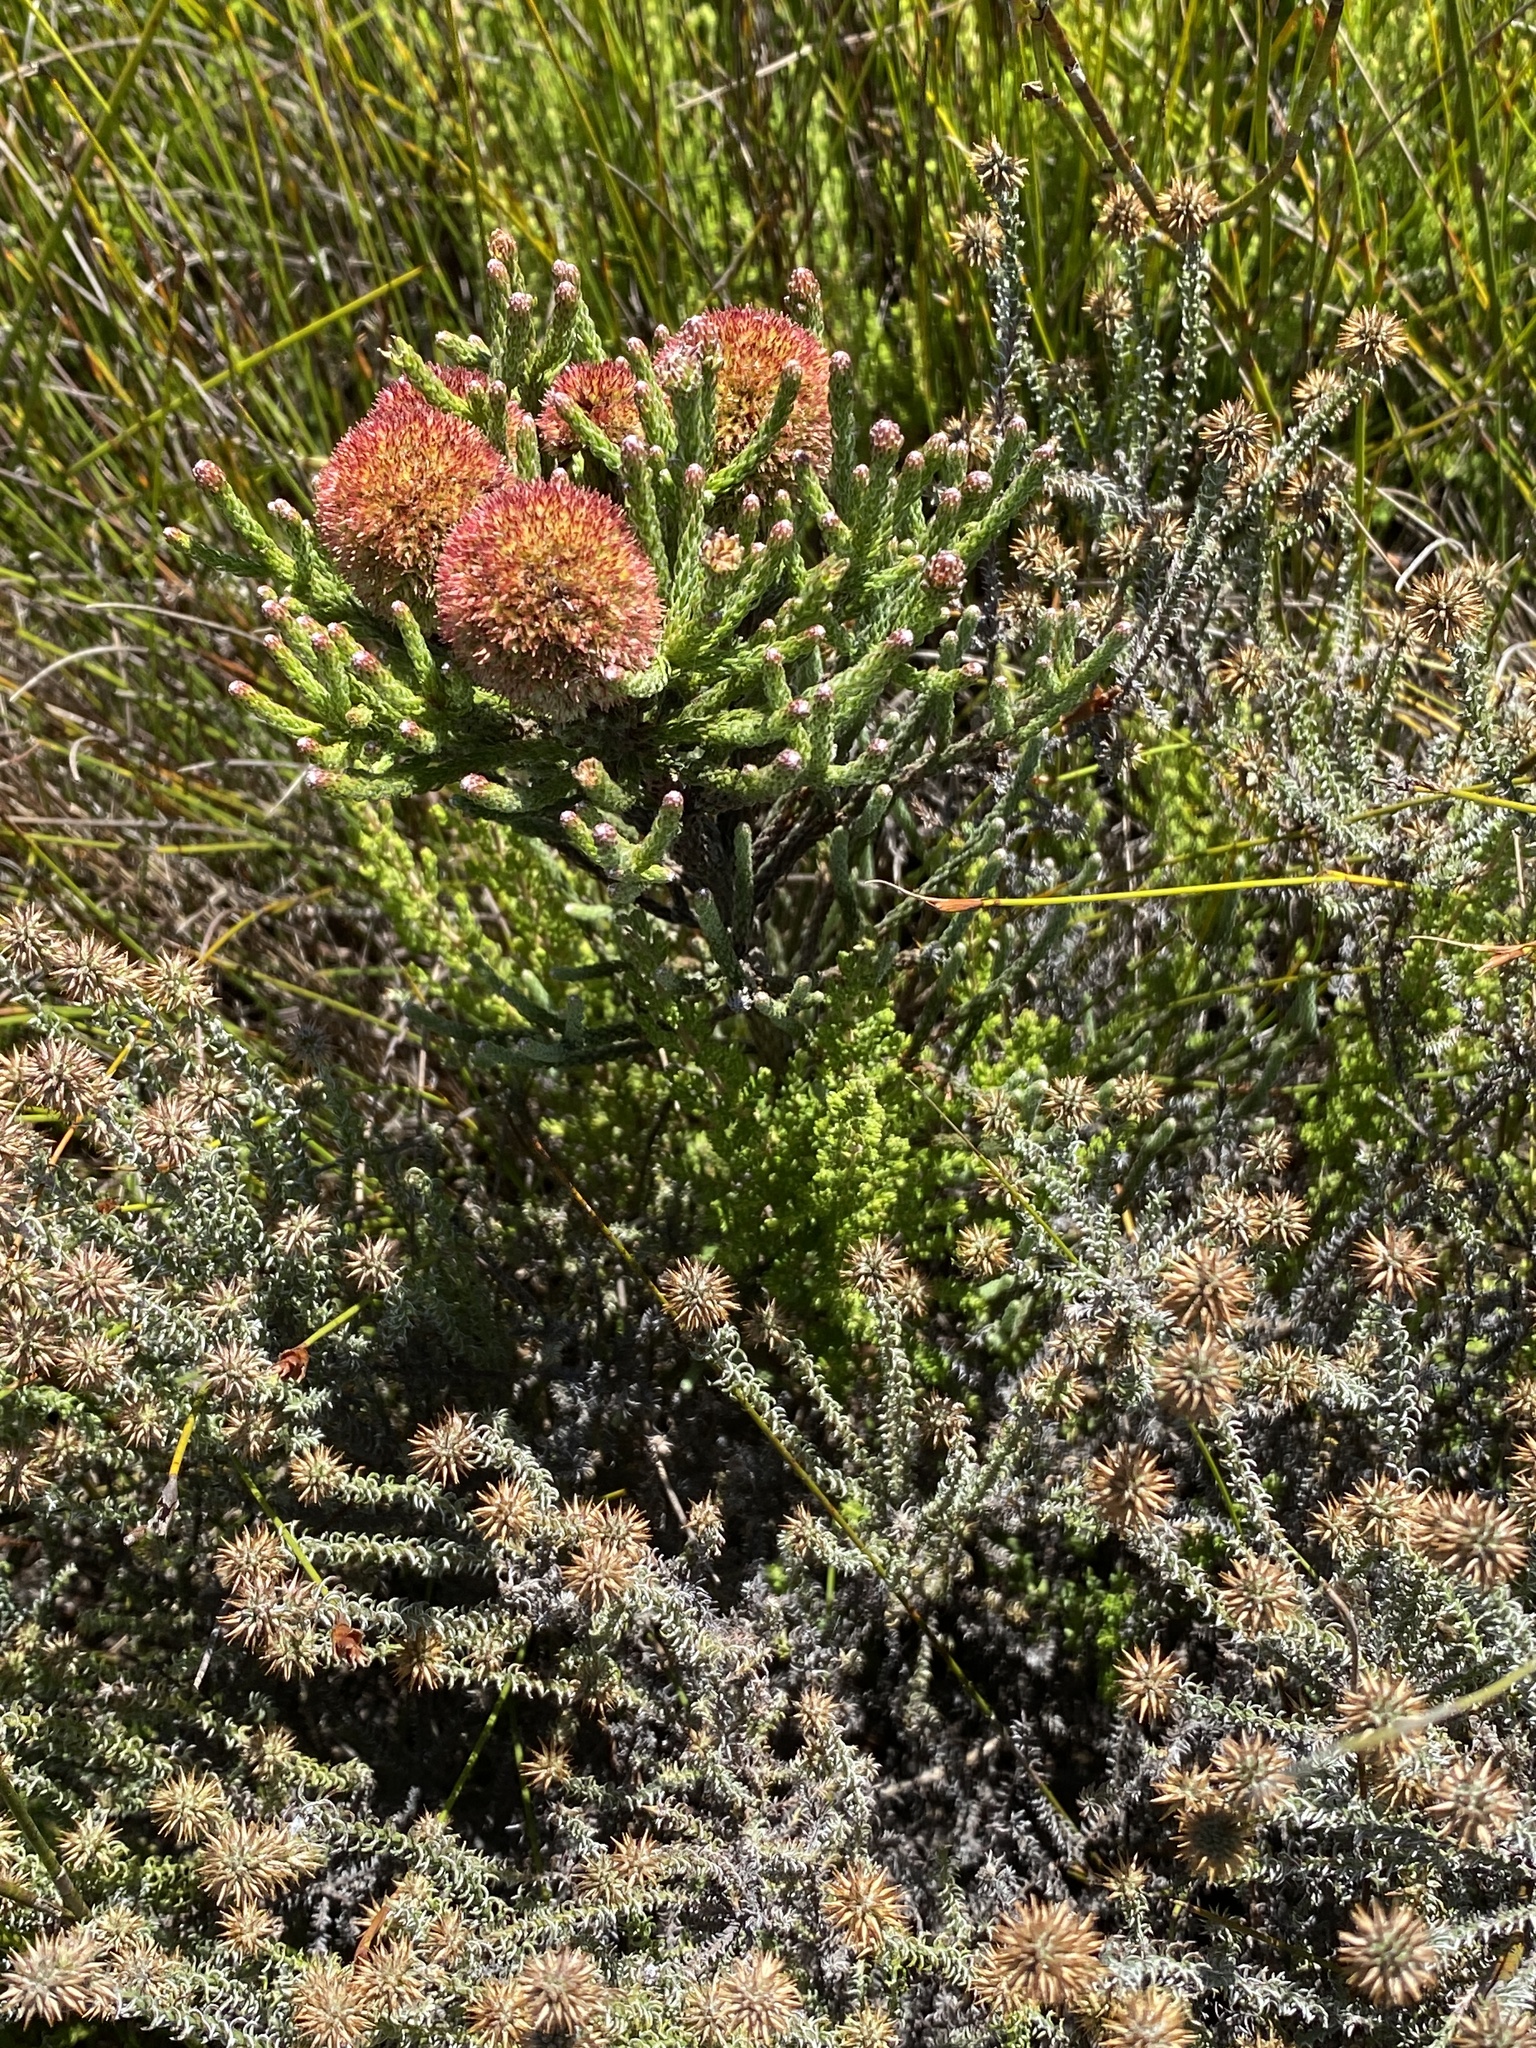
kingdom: Plantae
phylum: Tracheophyta
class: Magnoliopsida
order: Bruniales
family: Bruniaceae
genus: Brunia
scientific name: Brunia fragarioides
